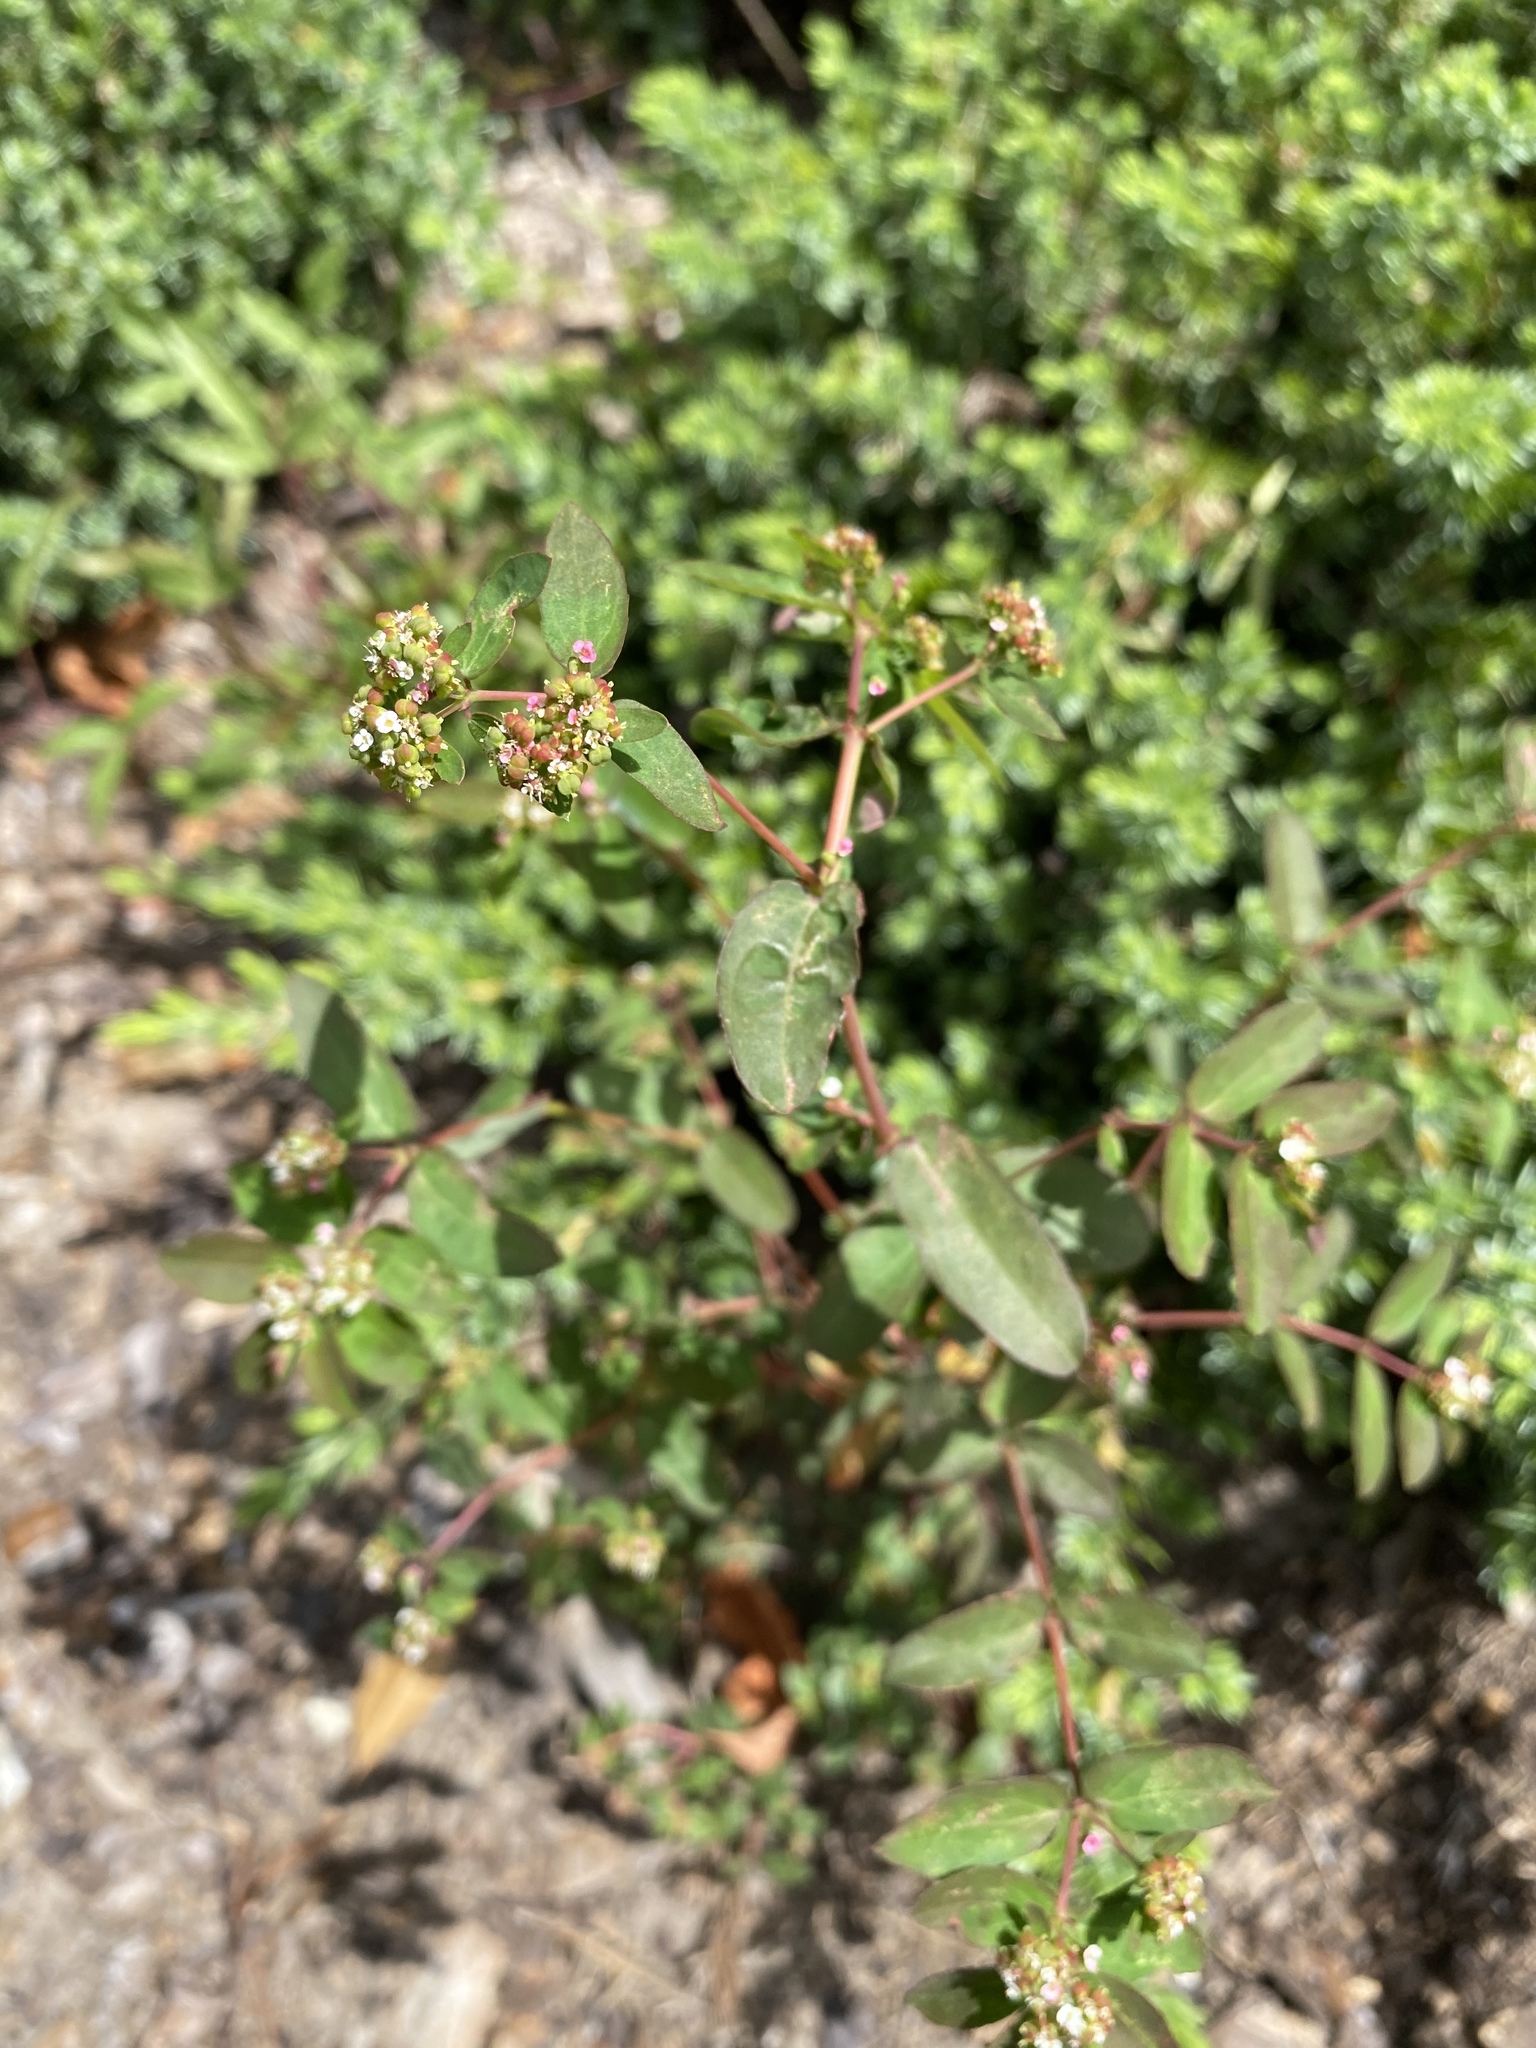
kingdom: Plantae
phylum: Tracheophyta
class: Magnoliopsida
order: Malpighiales
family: Euphorbiaceae
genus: Euphorbia
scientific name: Euphorbia hypericifolia
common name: Graceful sandmat
